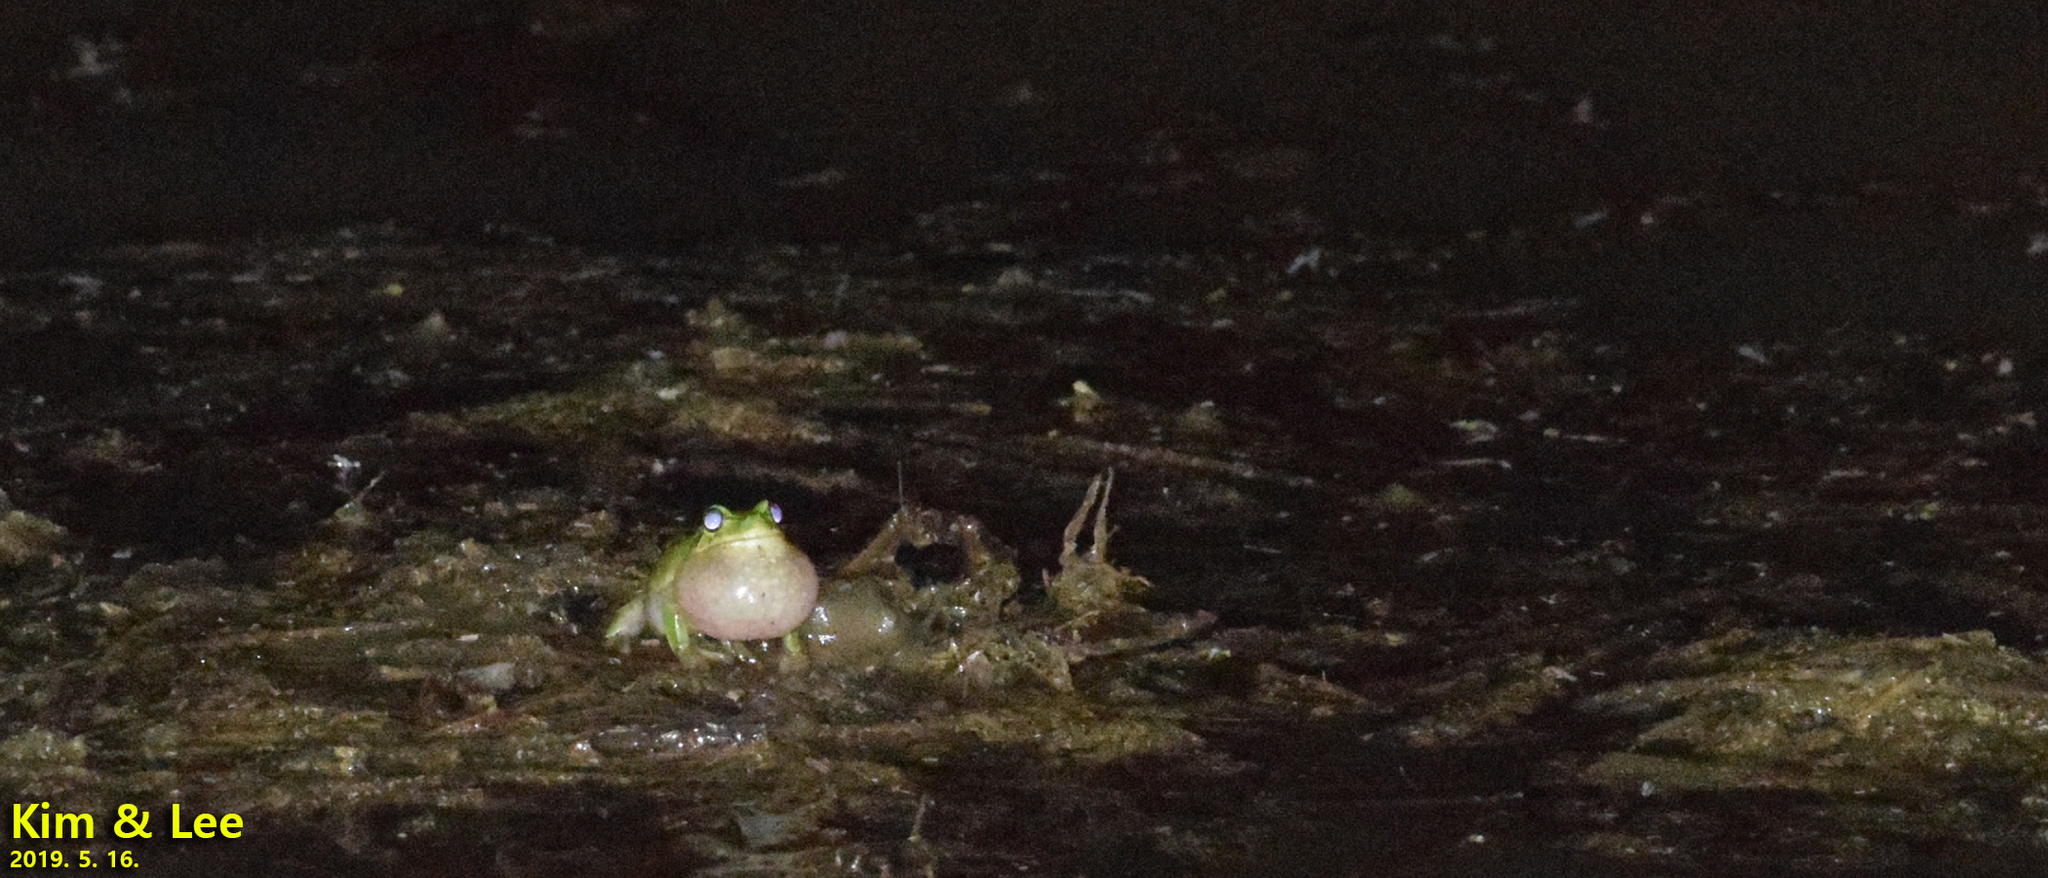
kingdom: Animalia
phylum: Chordata
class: Amphibia
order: Anura
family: Hylidae
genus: Dryophytes
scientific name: Dryophytes japonicus
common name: Japanese treefrog
